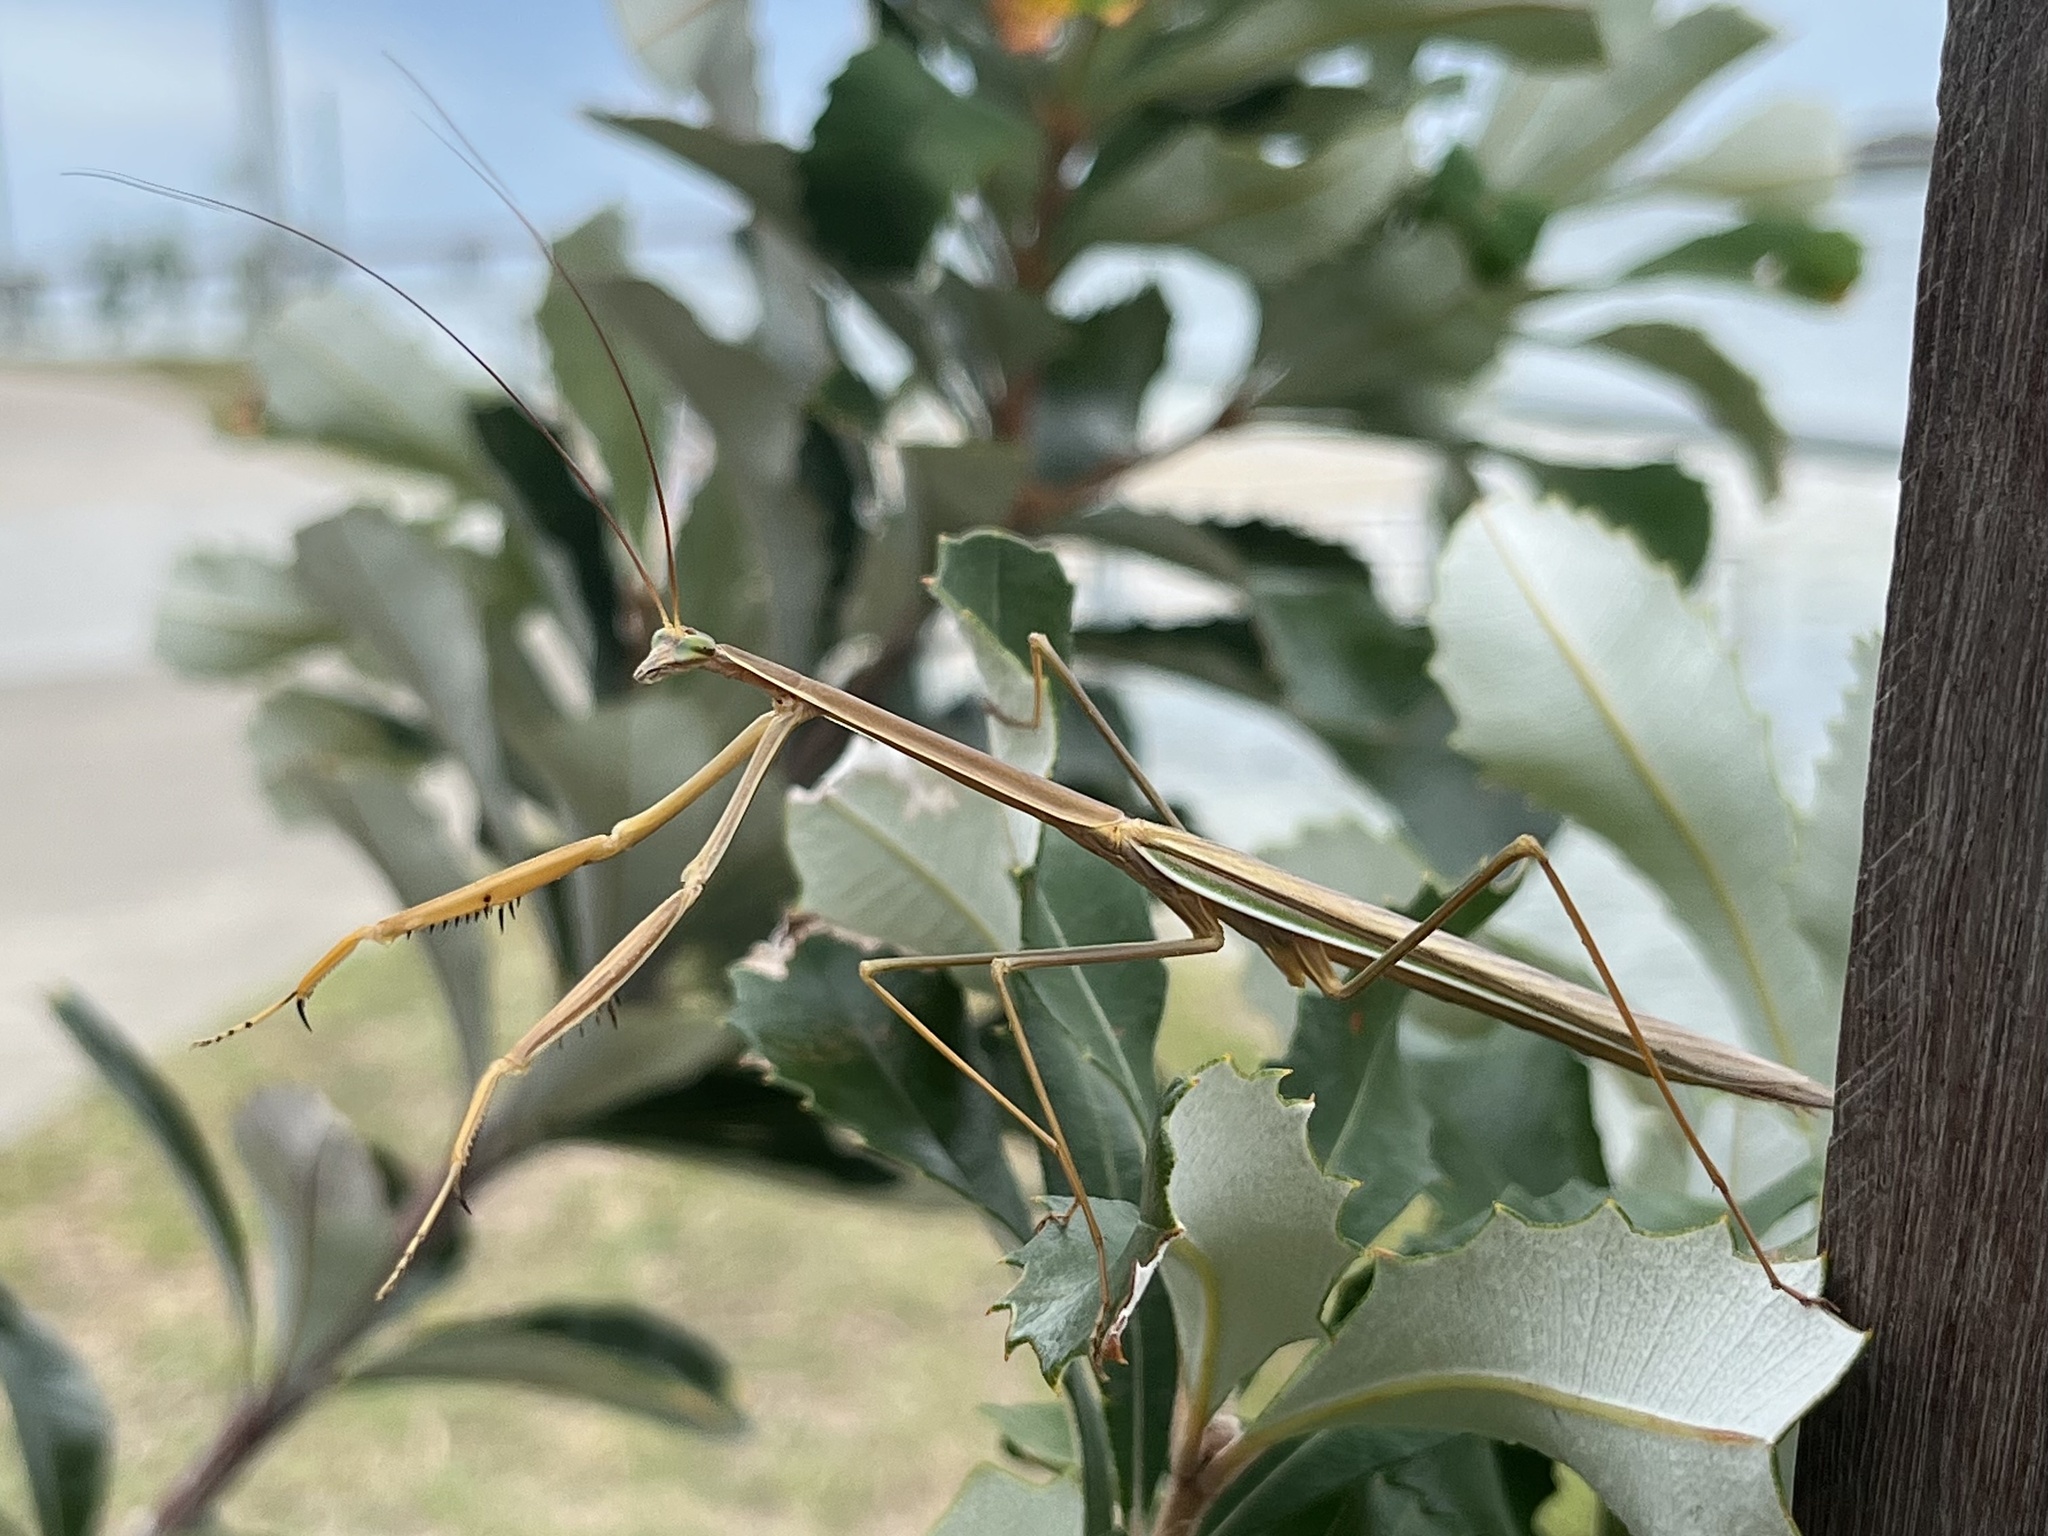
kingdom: Animalia
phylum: Arthropoda
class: Insecta
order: Mantodea
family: Mantidae
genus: Tenodera
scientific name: Tenodera
